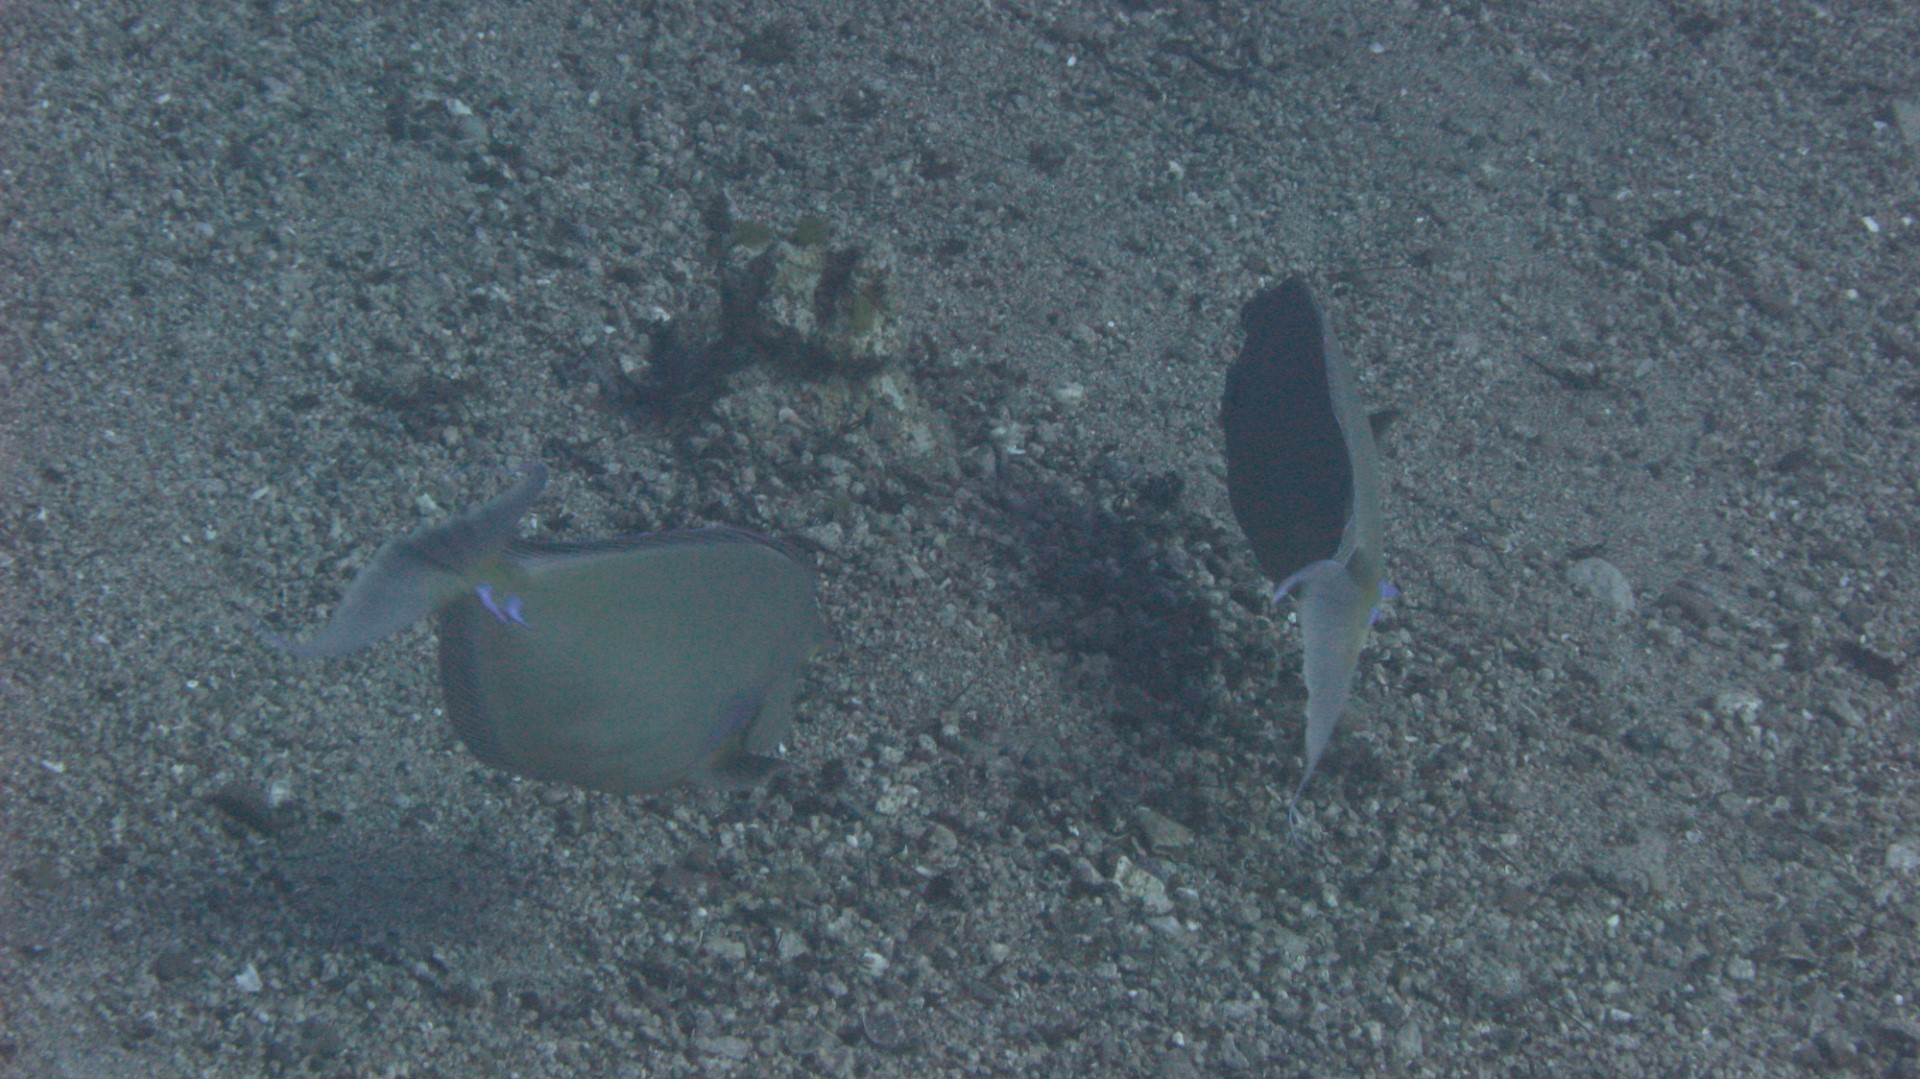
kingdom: Animalia
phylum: Chordata
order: Perciformes
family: Acanthuridae
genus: Naso
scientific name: Naso unicornis
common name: Bluespine unicornfish
